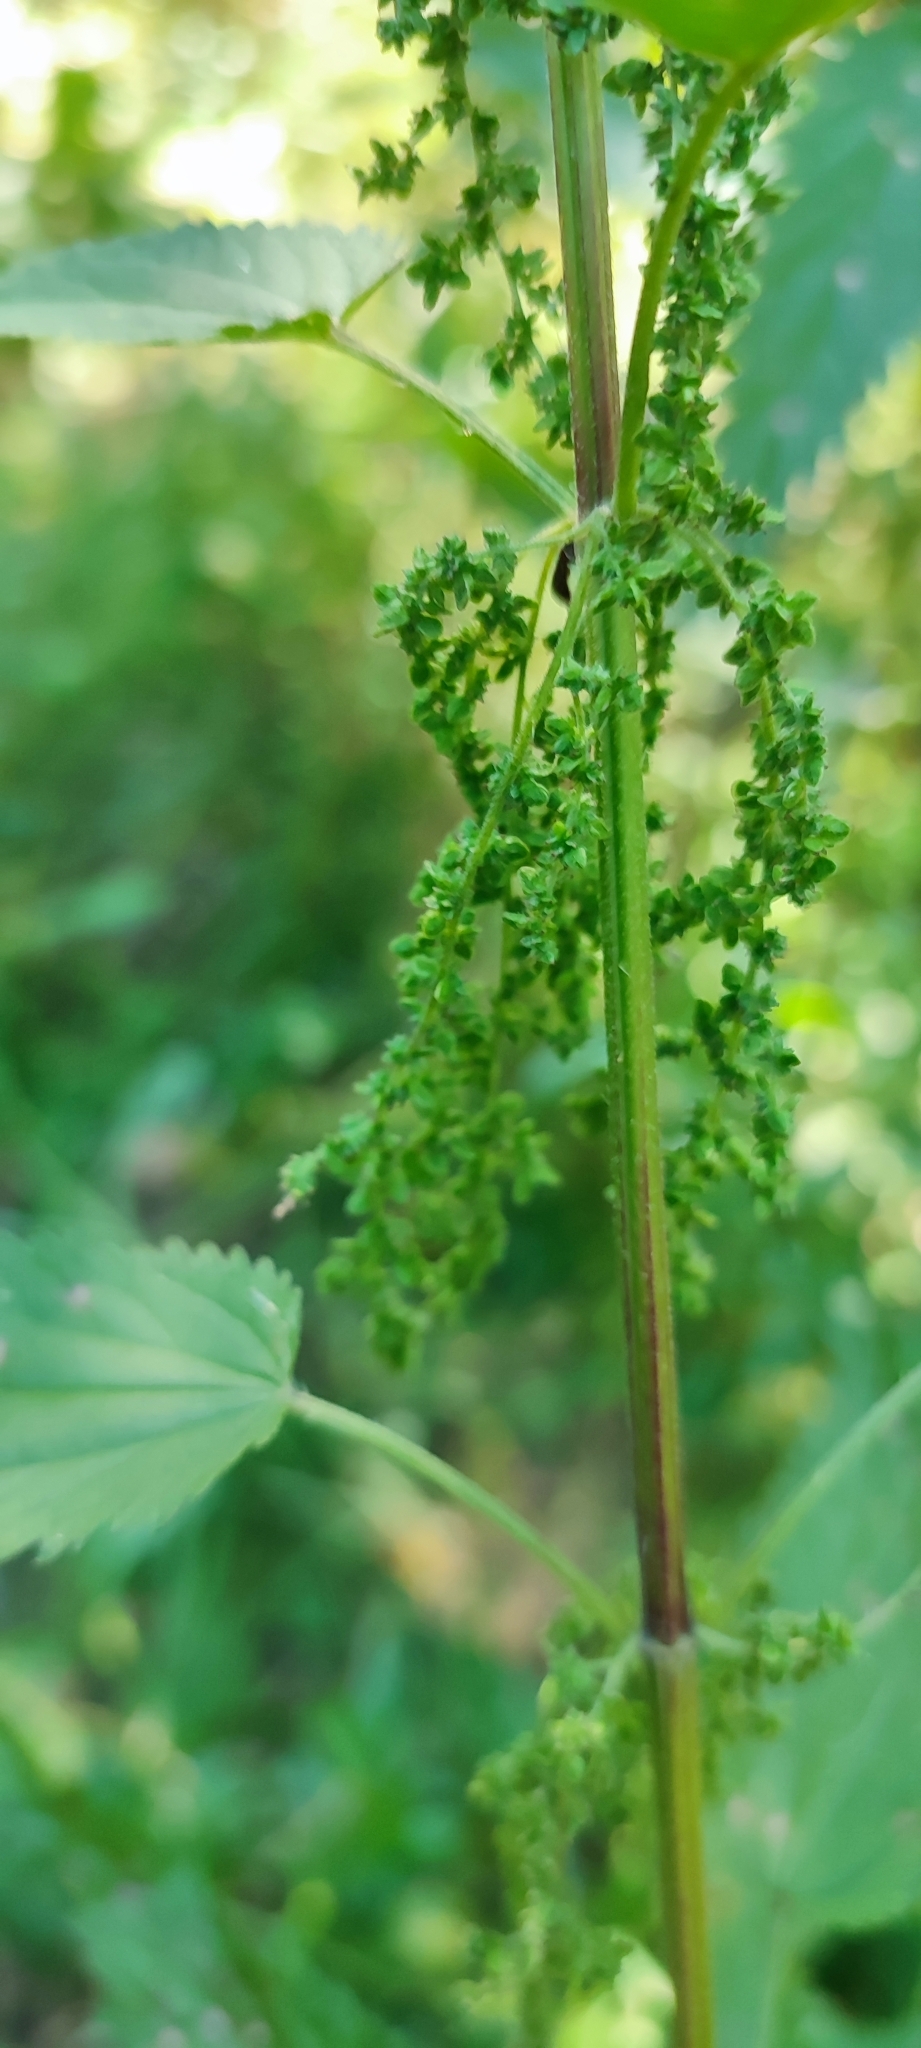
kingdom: Plantae
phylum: Tracheophyta
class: Magnoliopsida
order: Rosales
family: Urticaceae
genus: Urtica
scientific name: Urtica galeopsifolia
